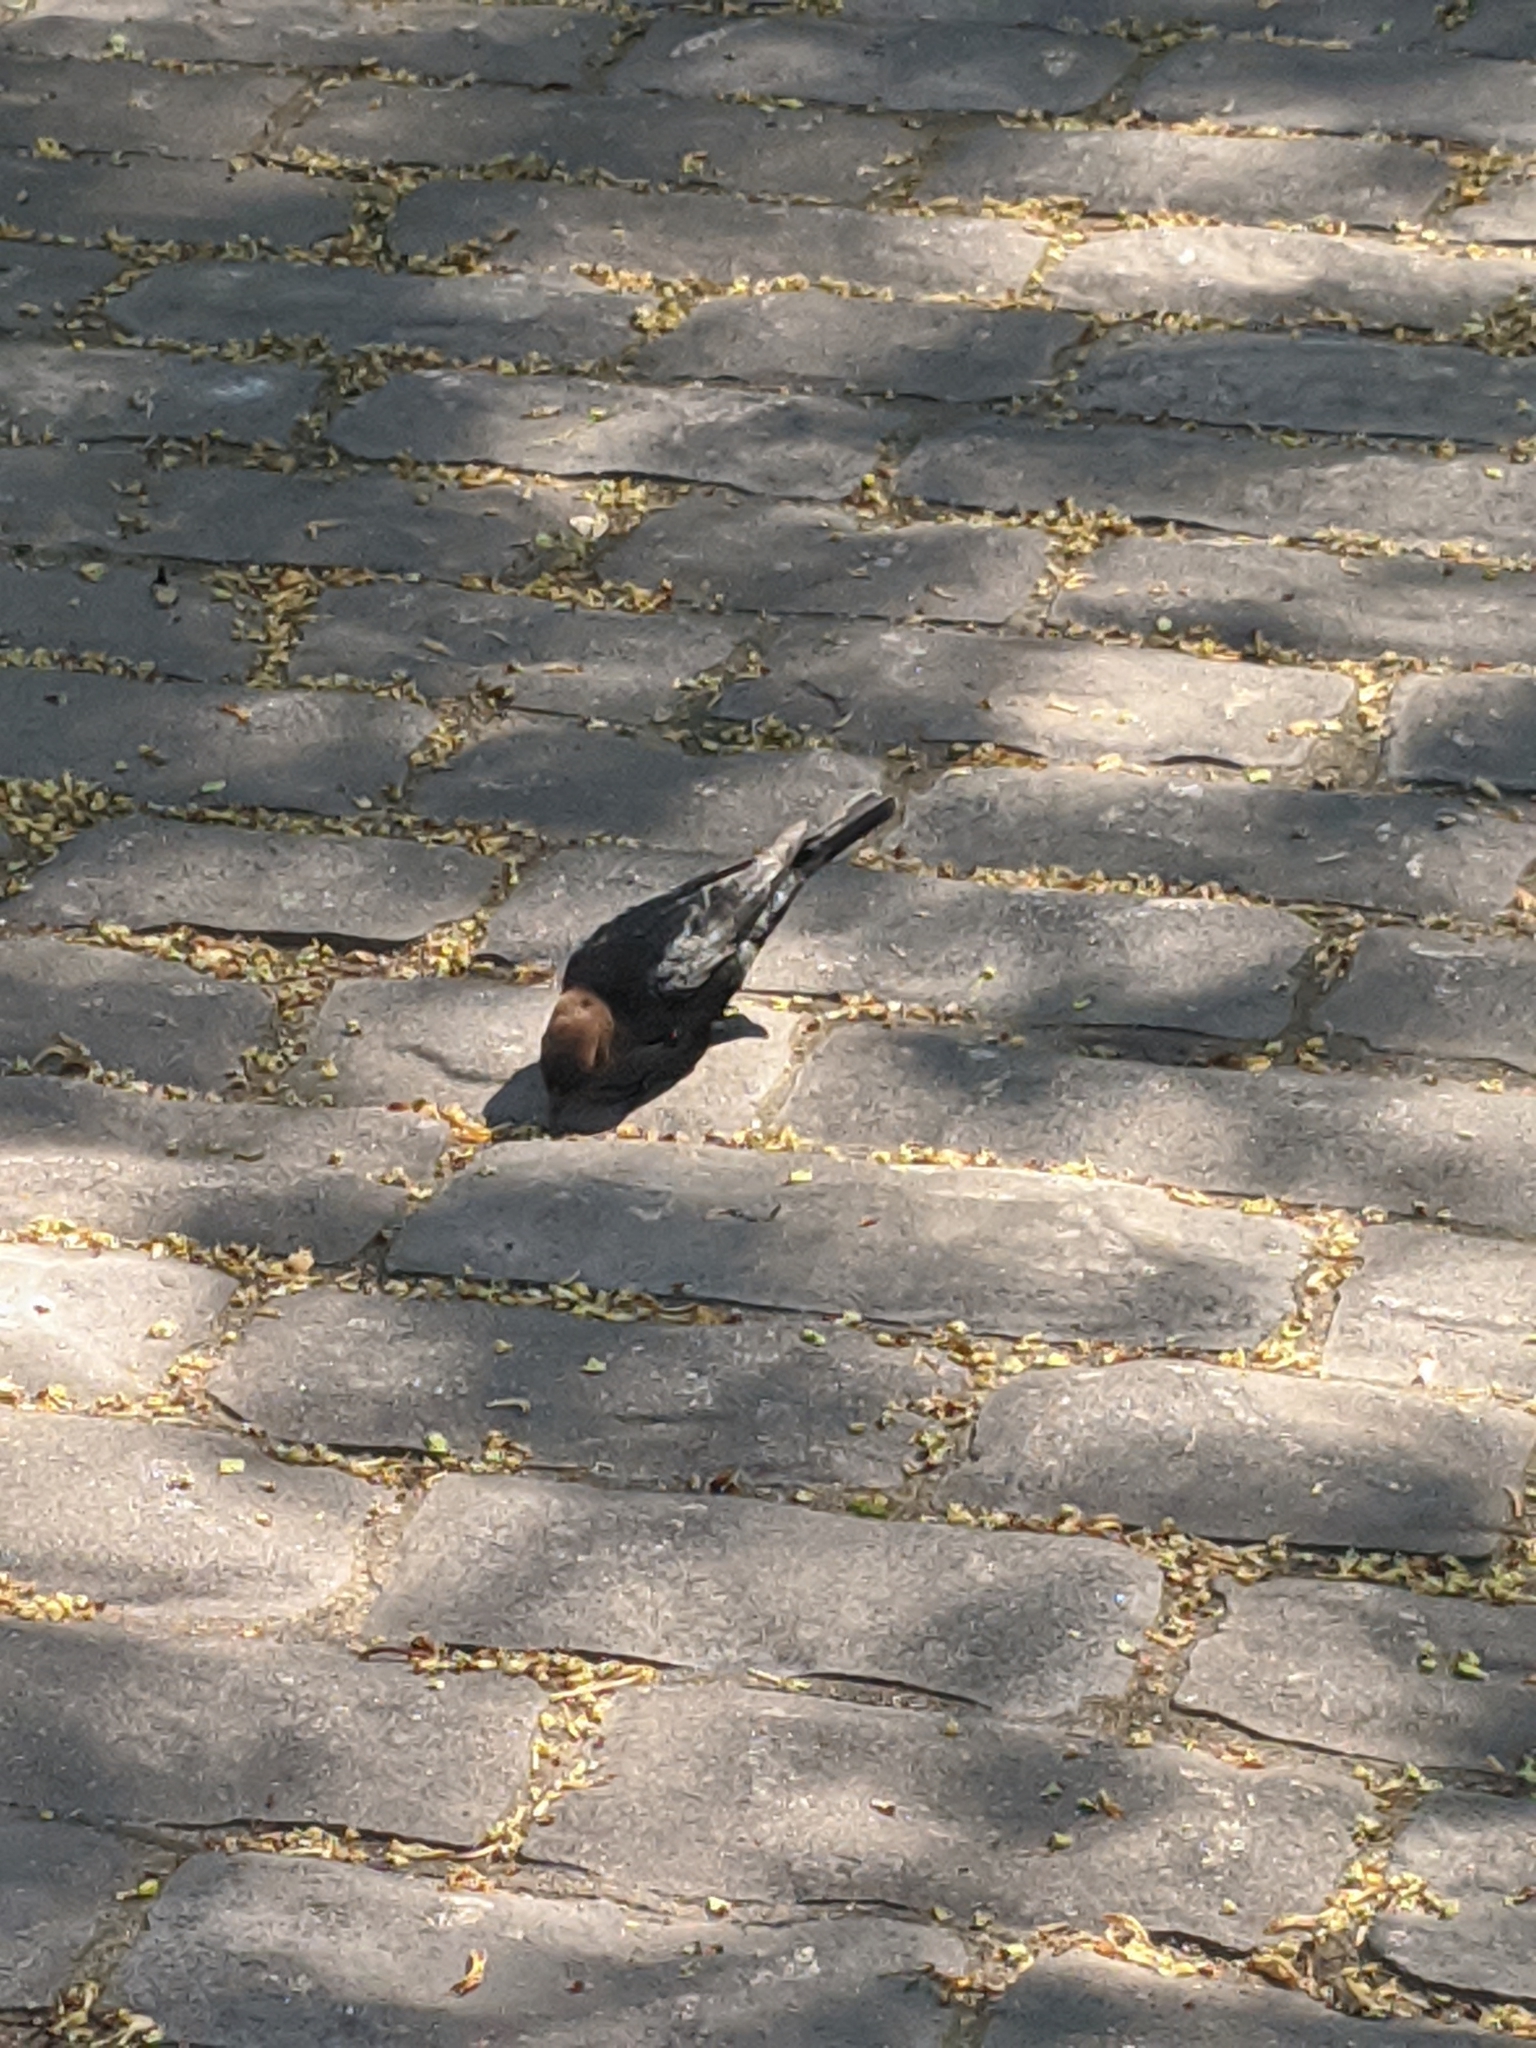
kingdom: Animalia
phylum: Chordata
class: Aves
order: Passeriformes
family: Icteridae
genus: Molothrus
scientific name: Molothrus ater
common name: Brown-headed cowbird
